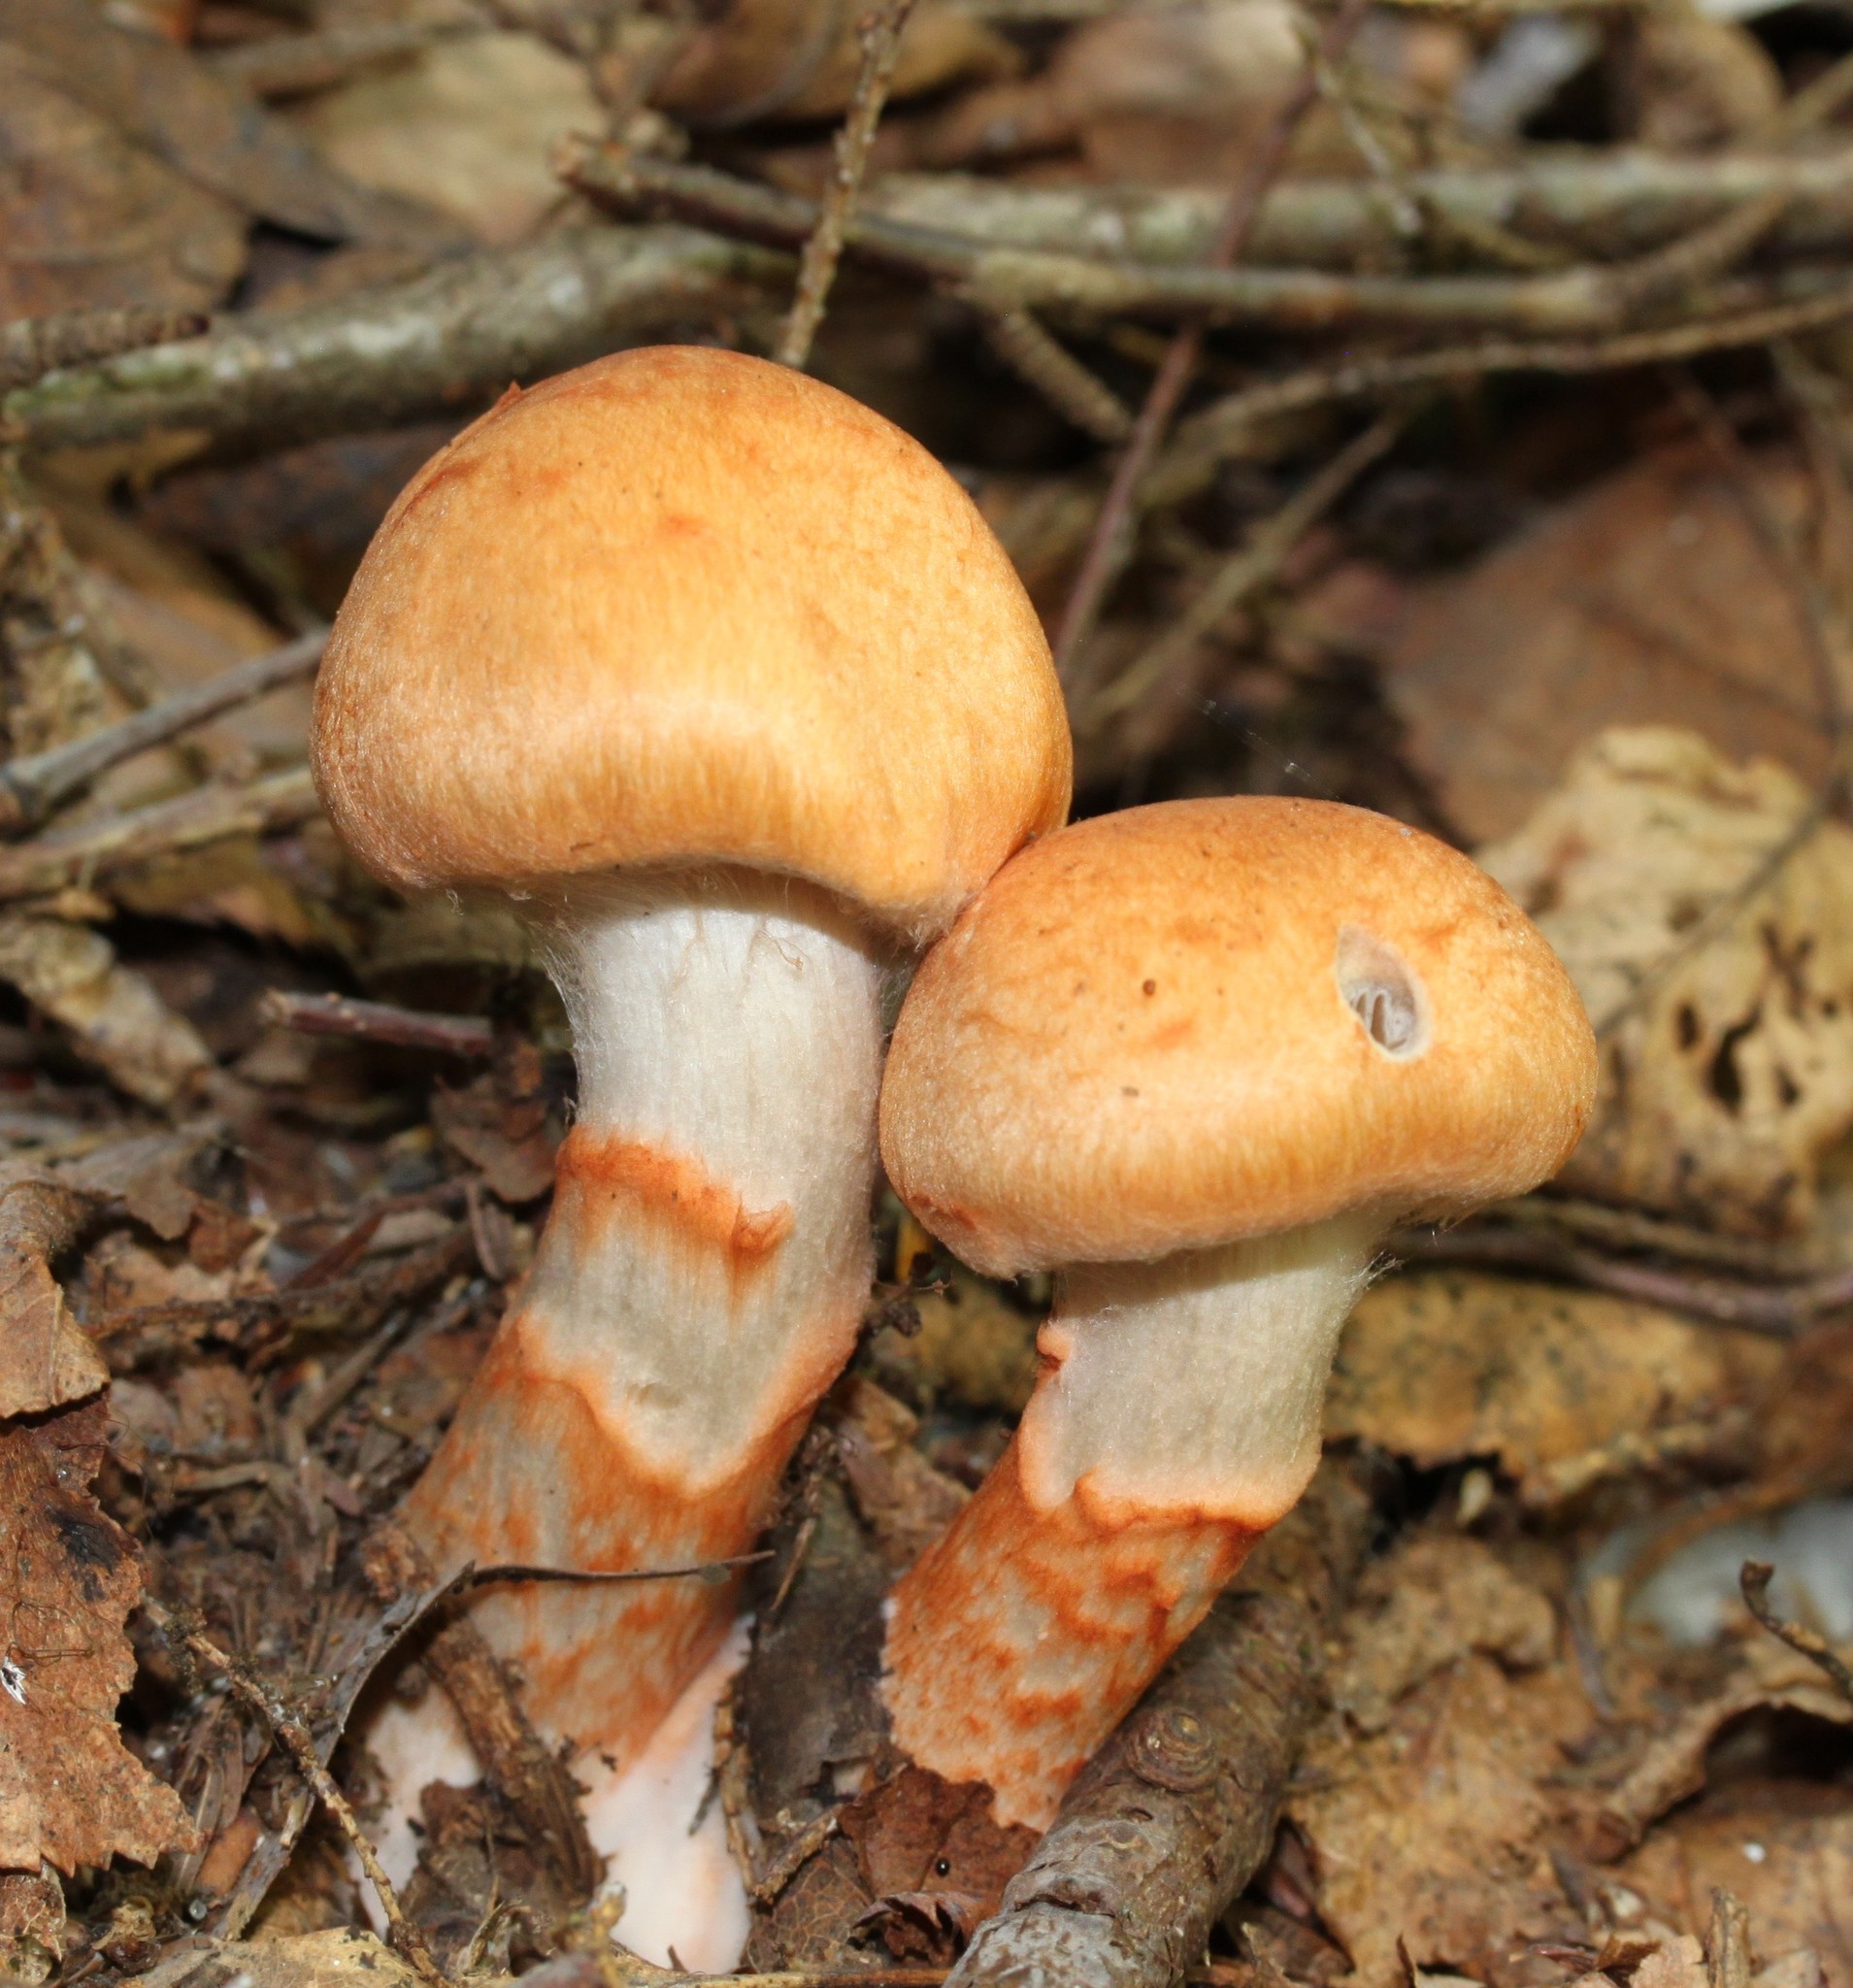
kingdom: Fungi
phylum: Basidiomycota
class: Agaricomycetes
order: Agaricales
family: Cortinariaceae
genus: Cortinarius
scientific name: Cortinarius armillatus
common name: Red banded webcap
